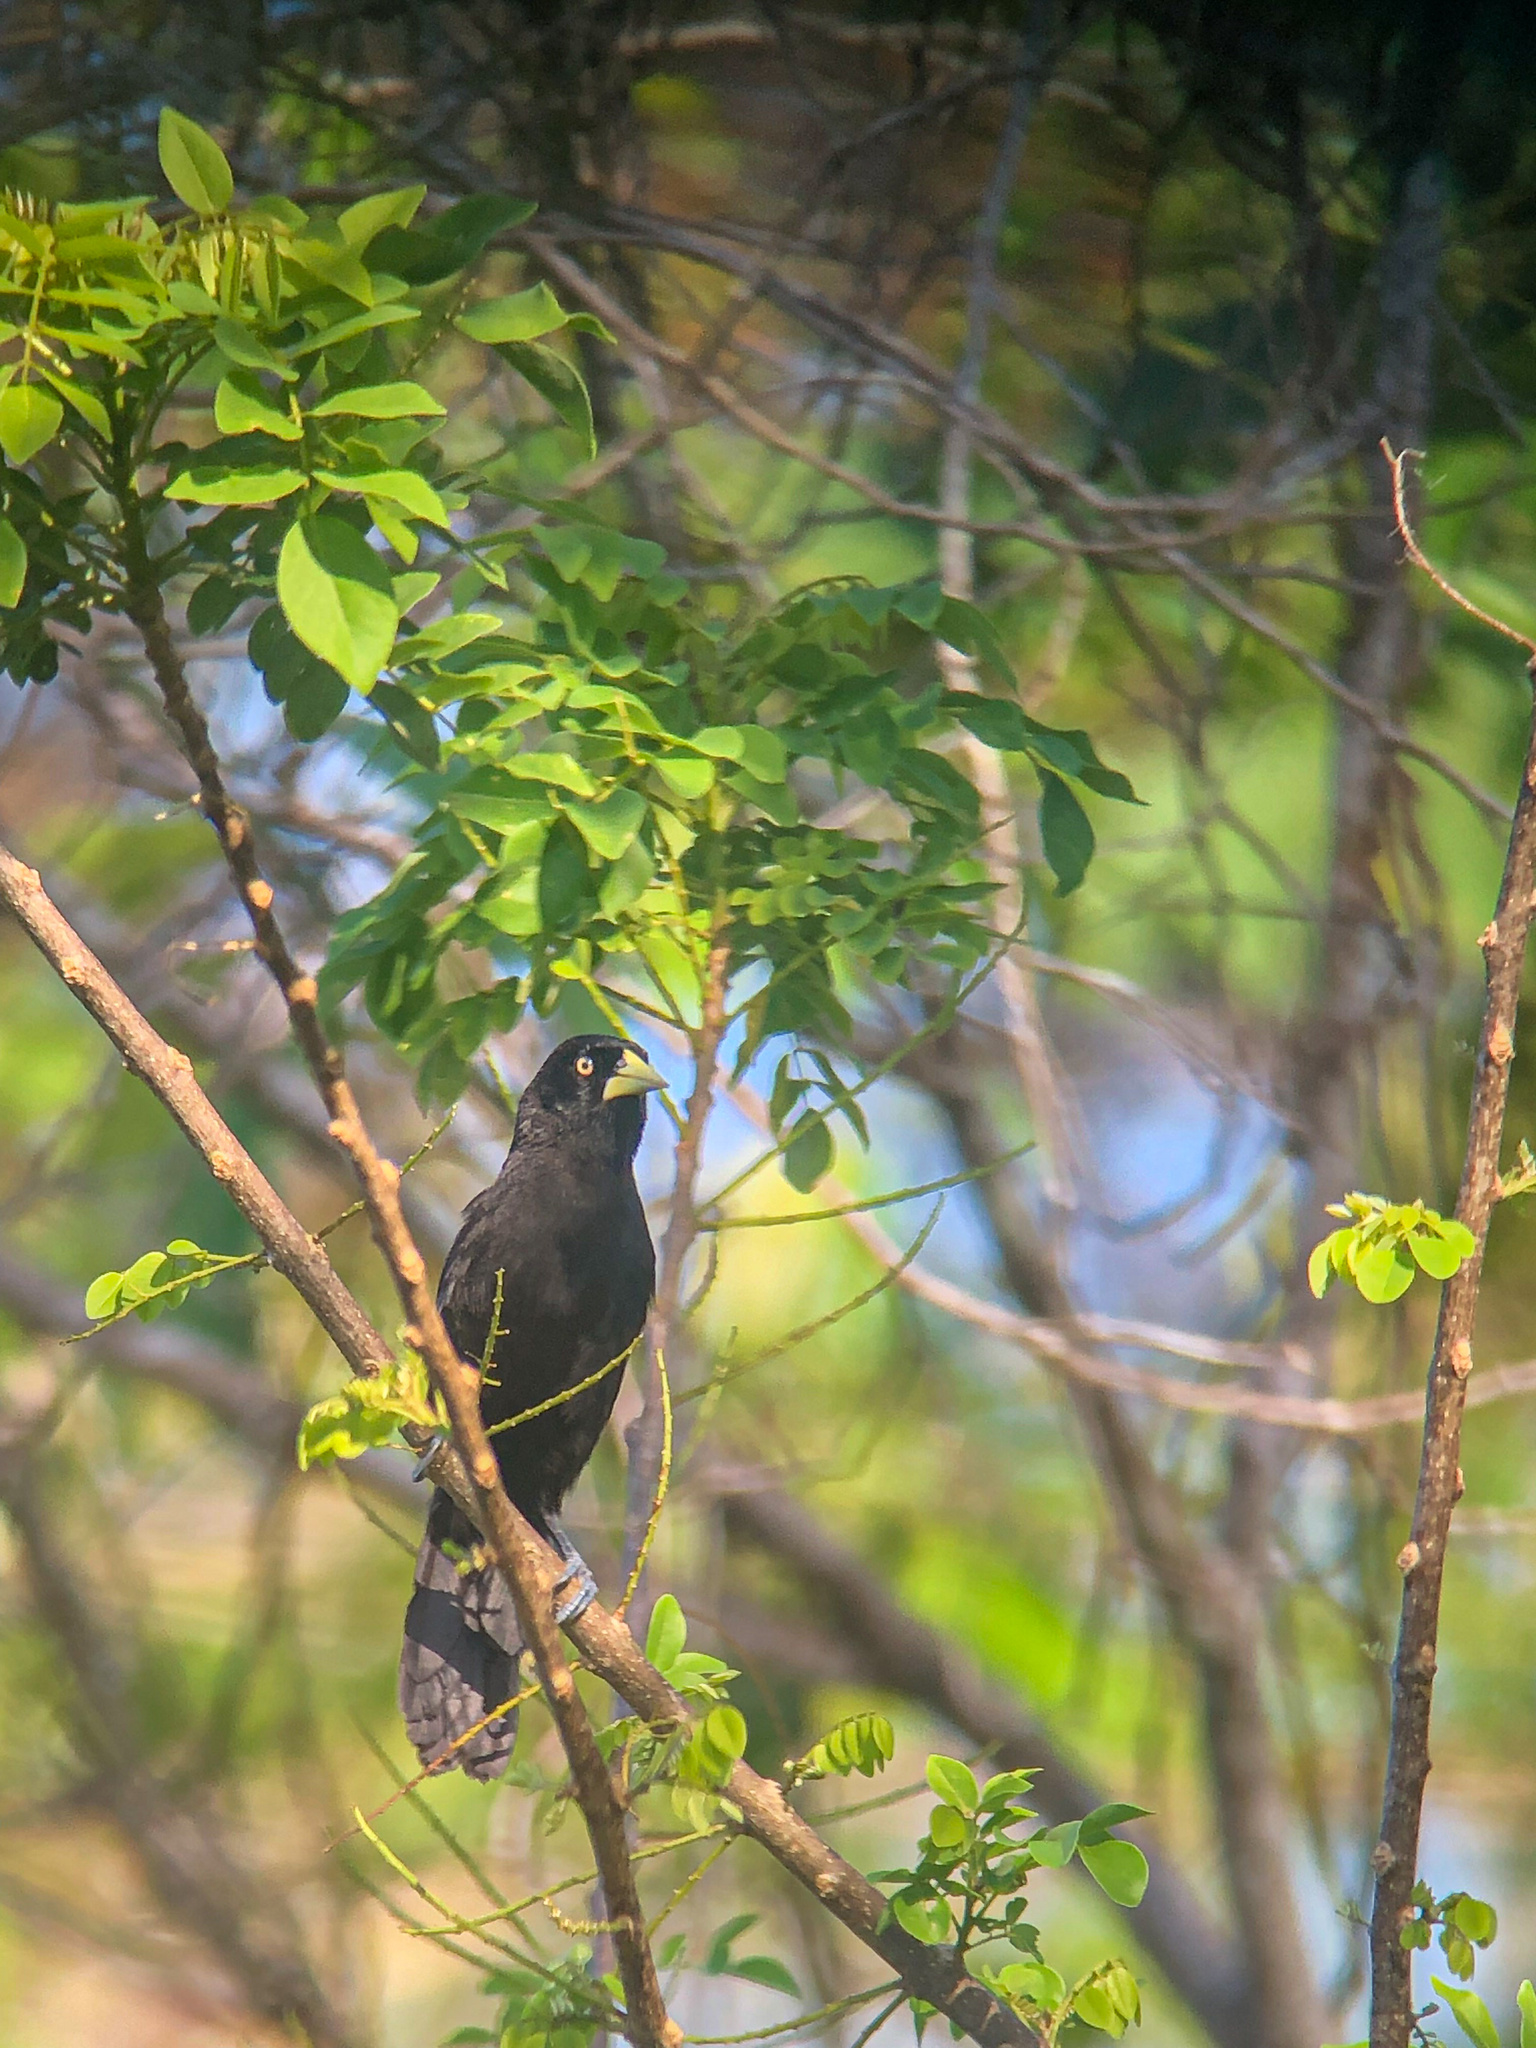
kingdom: Animalia
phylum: Chordata
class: Aves
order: Passeriformes
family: Icteridae
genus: Amblycercus
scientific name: Amblycercus holosericeus
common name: Yellow-billed cacique
